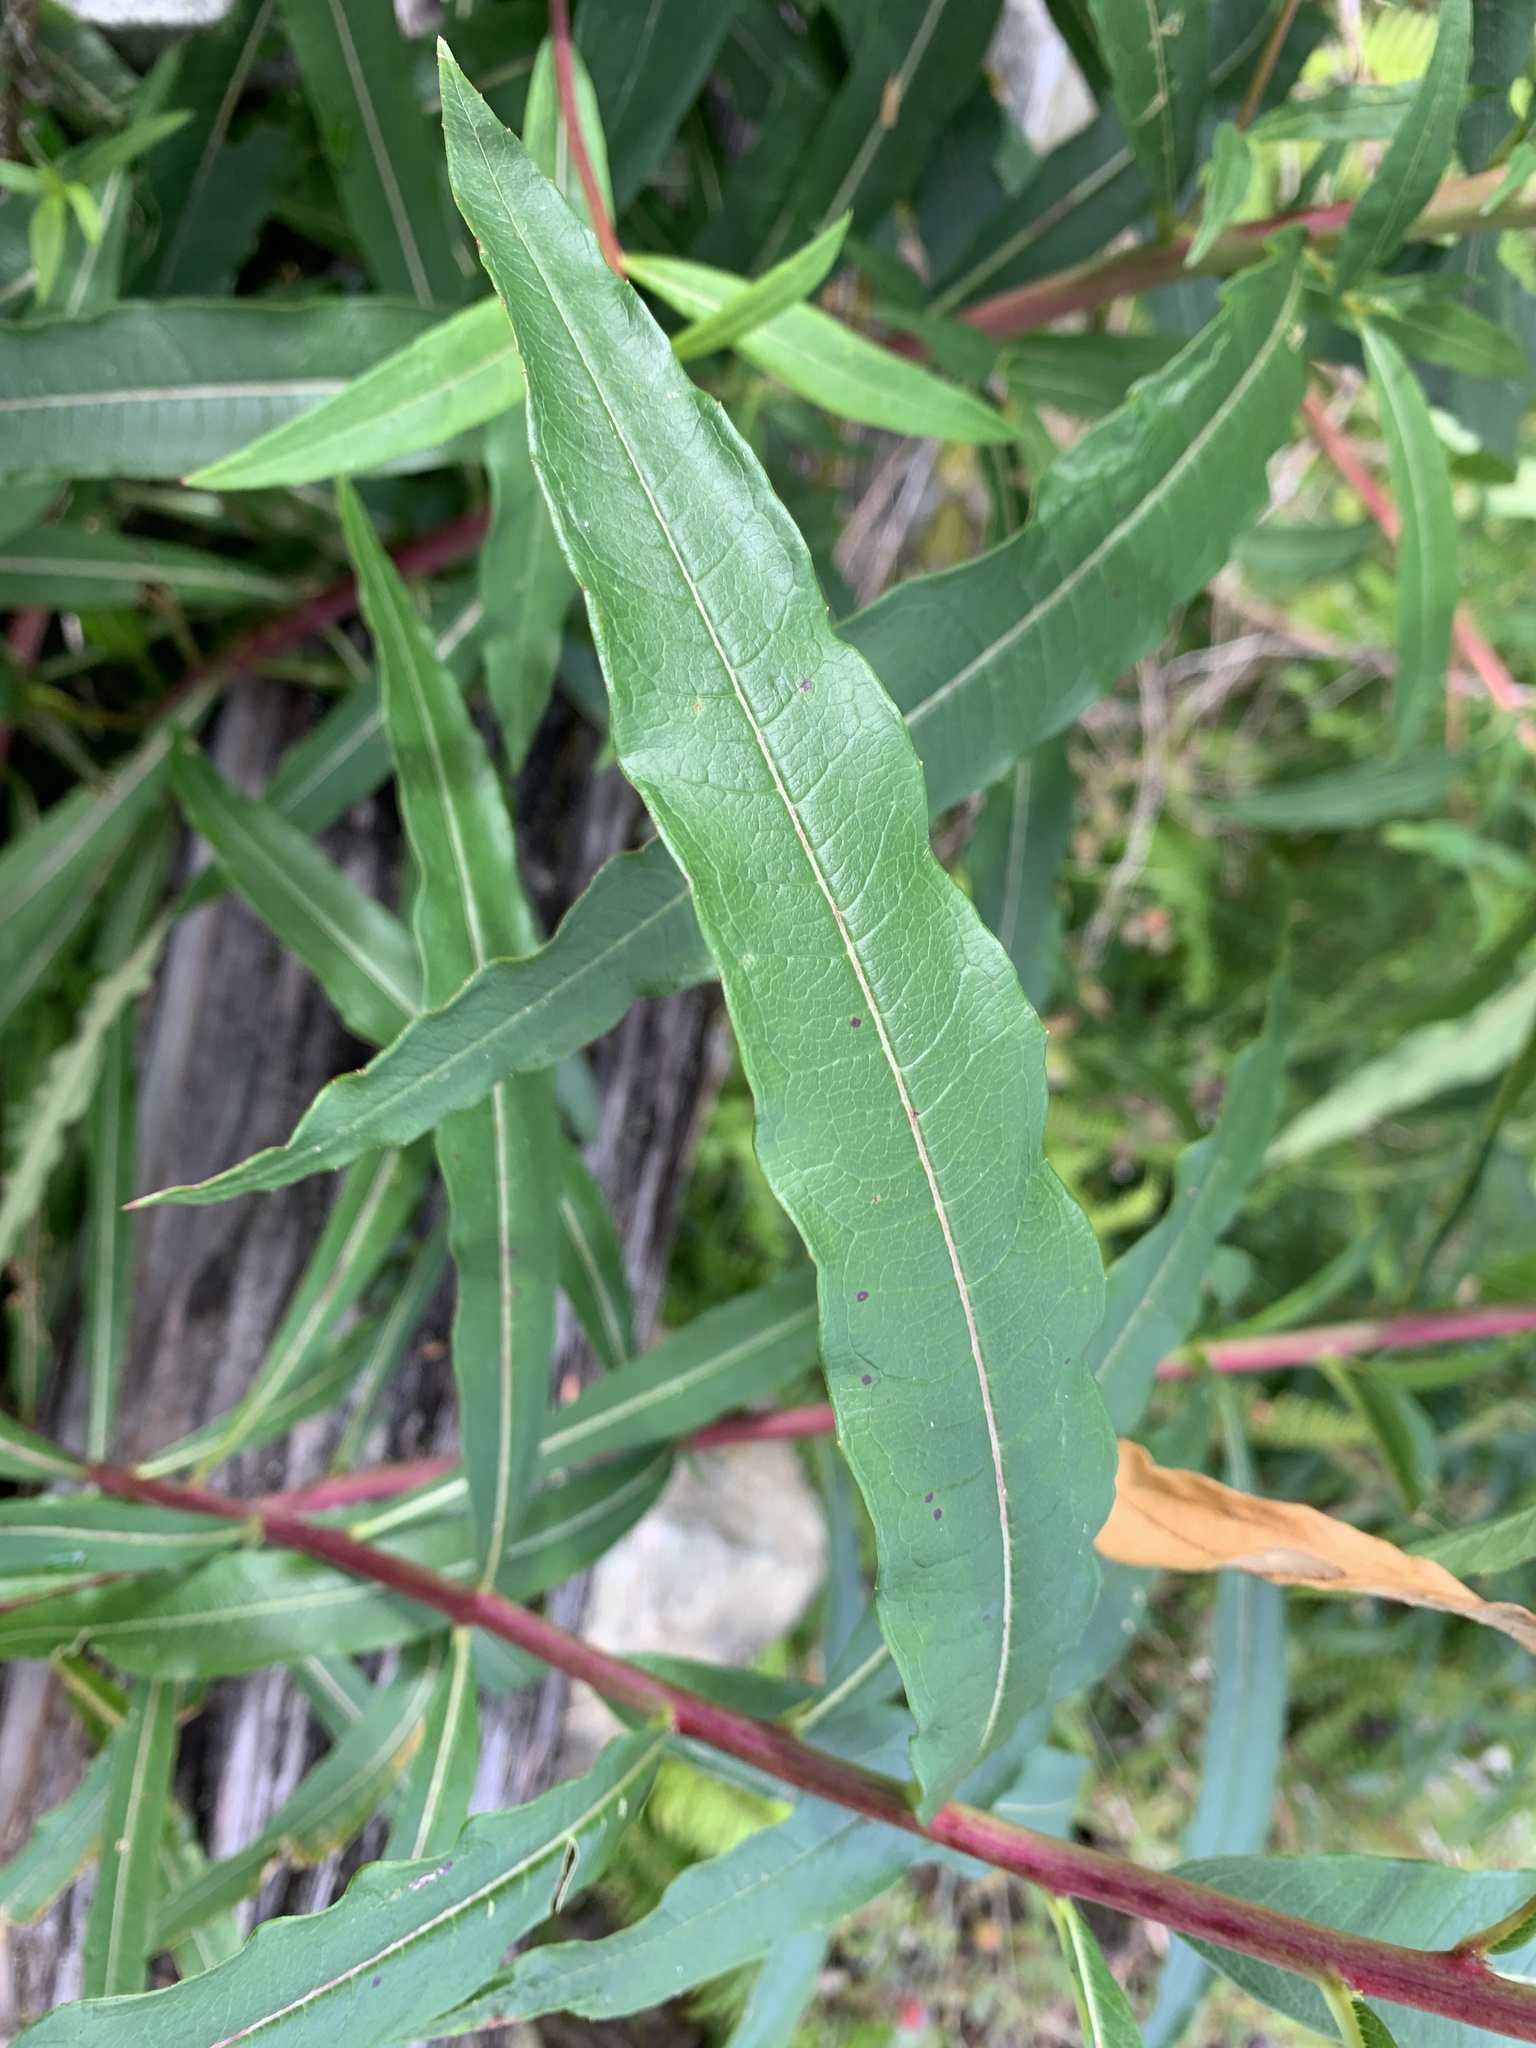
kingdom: Plantae
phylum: Tracheophyta
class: Magnoliopsida
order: Myrtales
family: Onagraceae
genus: Chamaenerion
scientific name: Chamaenerion angustifolium
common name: Fireweed
